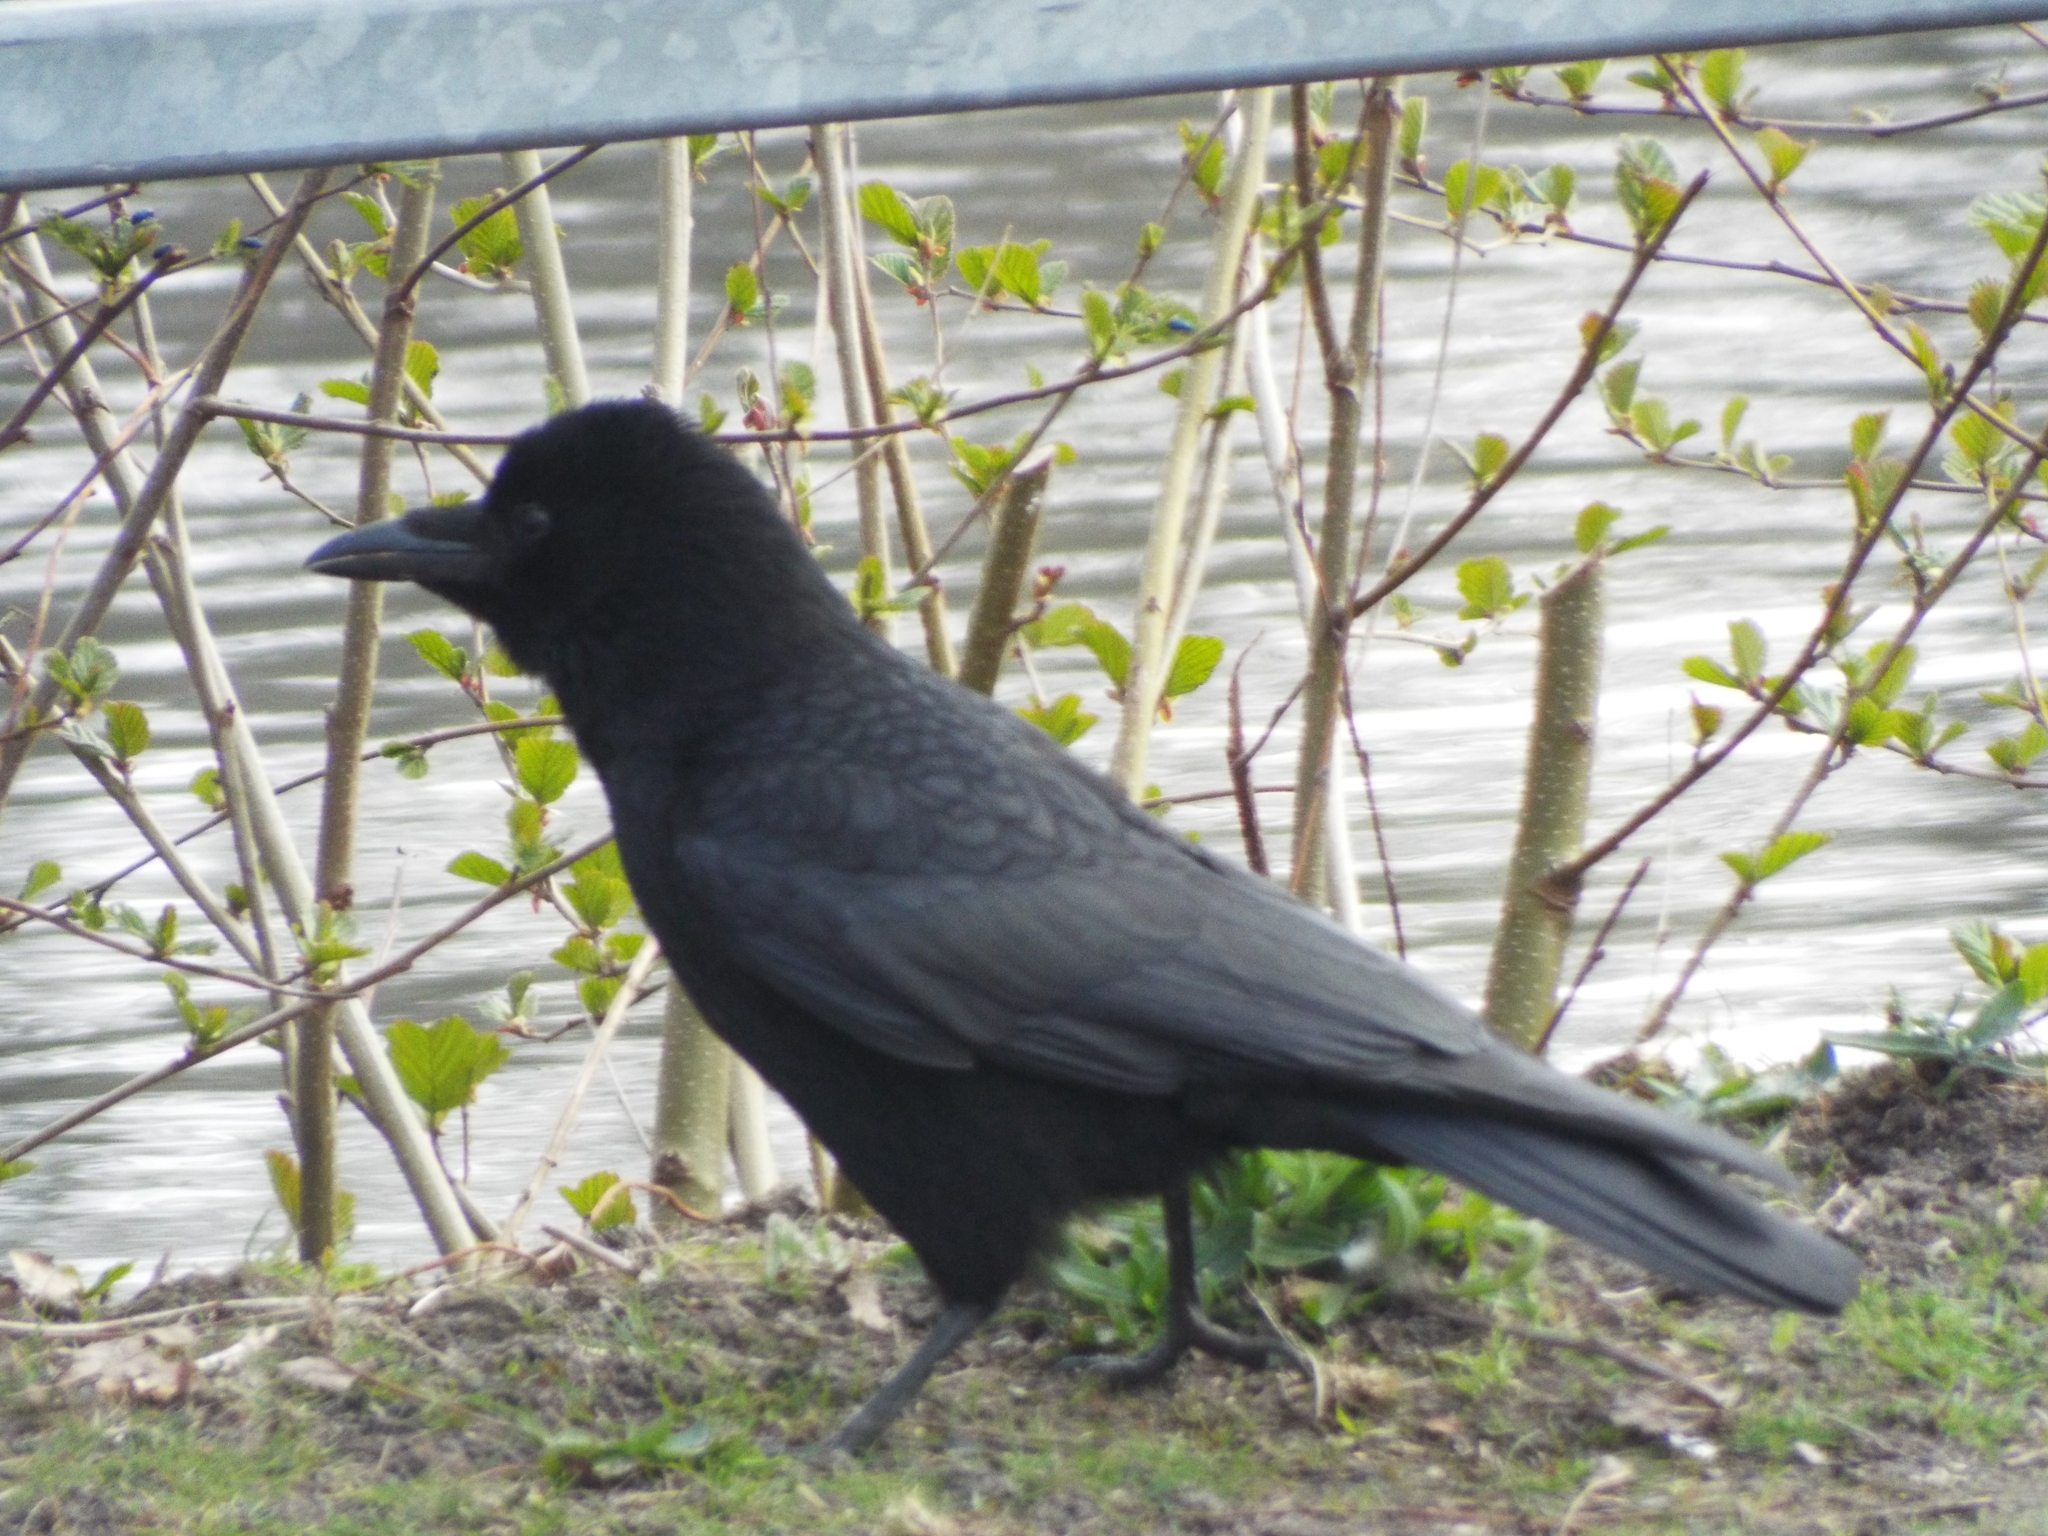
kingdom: Animalia
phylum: Chordata
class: Aves
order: Passeriformes
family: Corvidae
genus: Corvus
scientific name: Corvus corone
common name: Carrion crow
